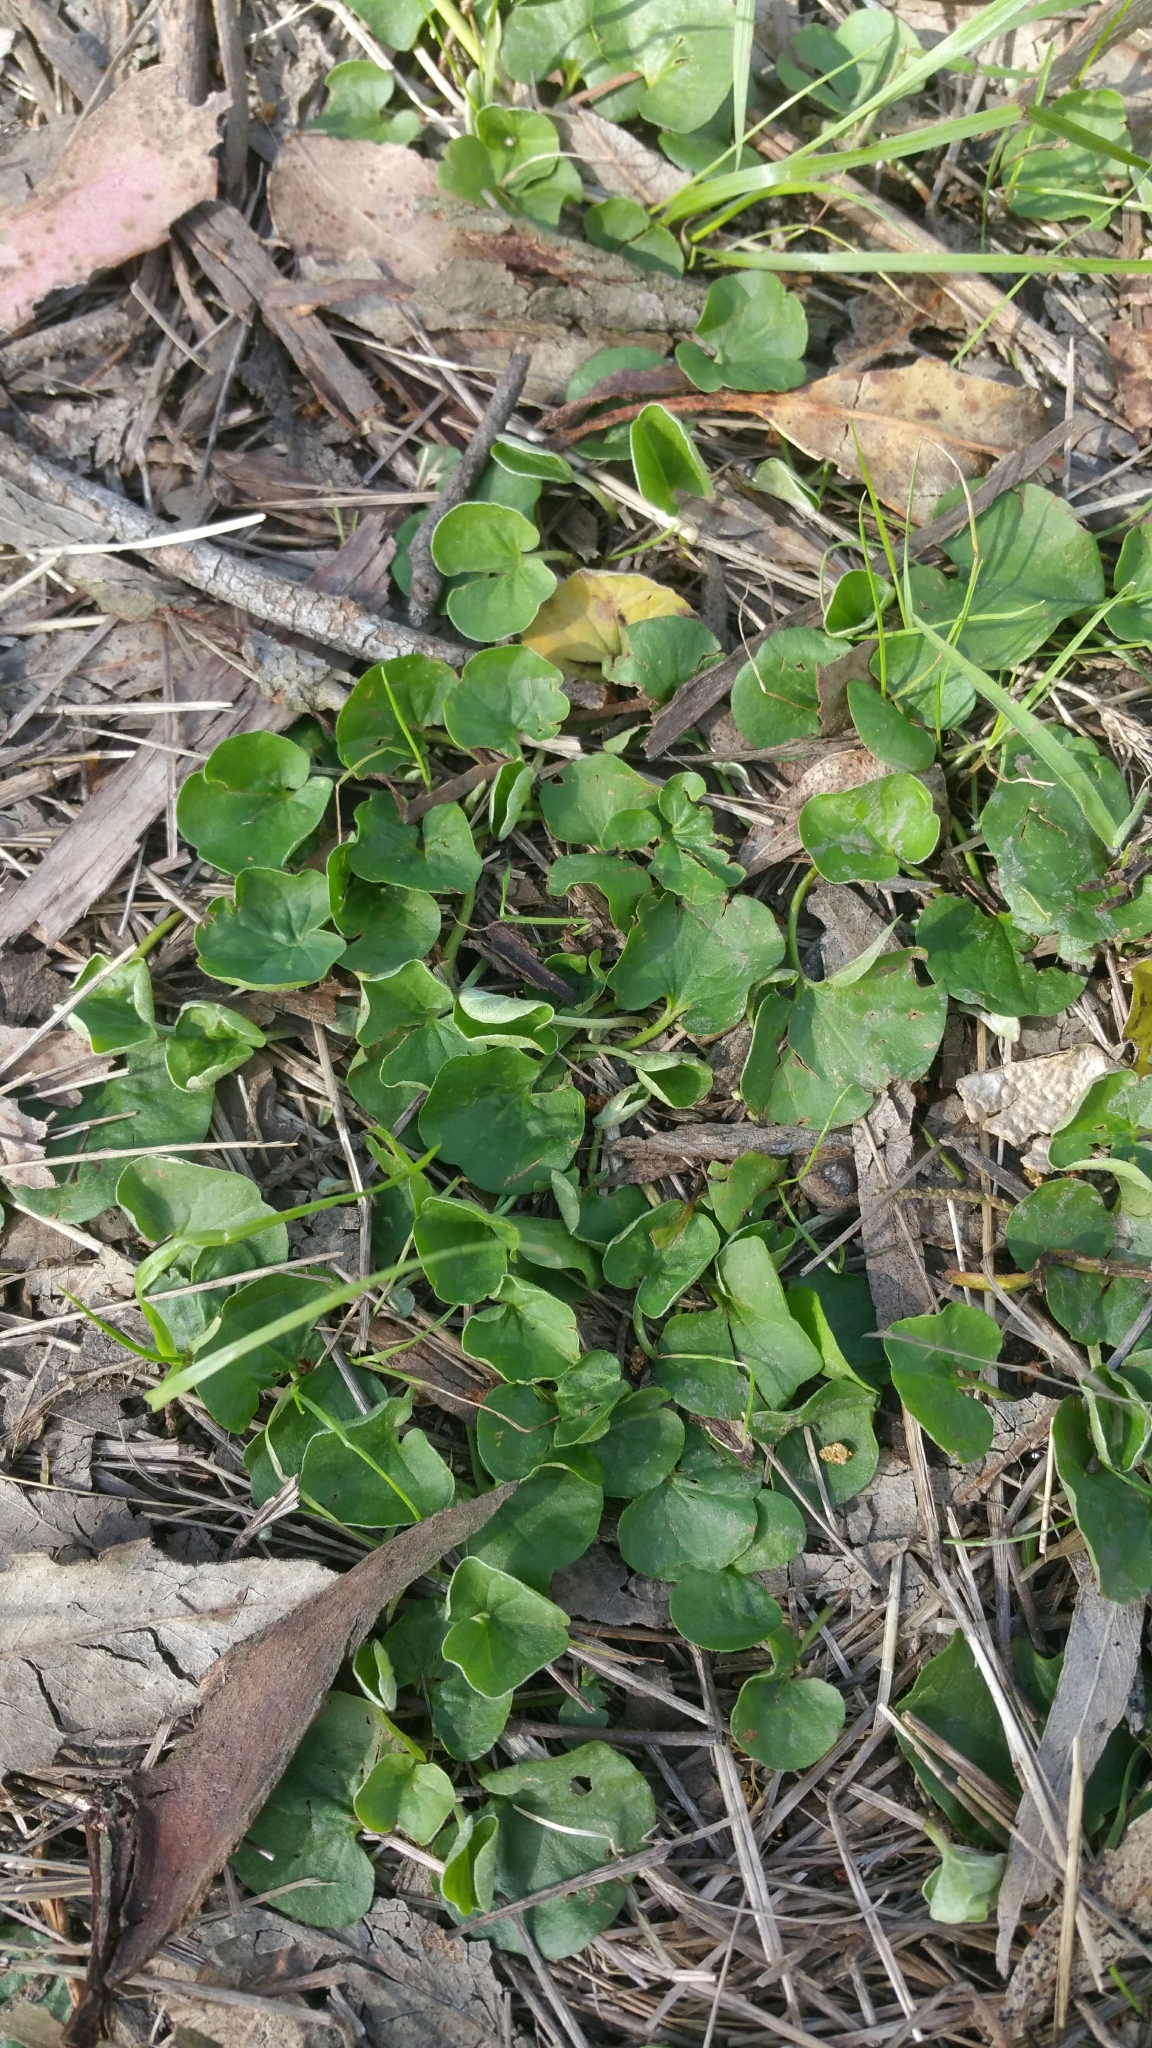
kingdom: Plantae
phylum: Tracheophyta
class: Magnoliopsida
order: Solanales
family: Convolvulaceae
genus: Dichondra
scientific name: Dichondra donelliana
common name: California ponysfoot
